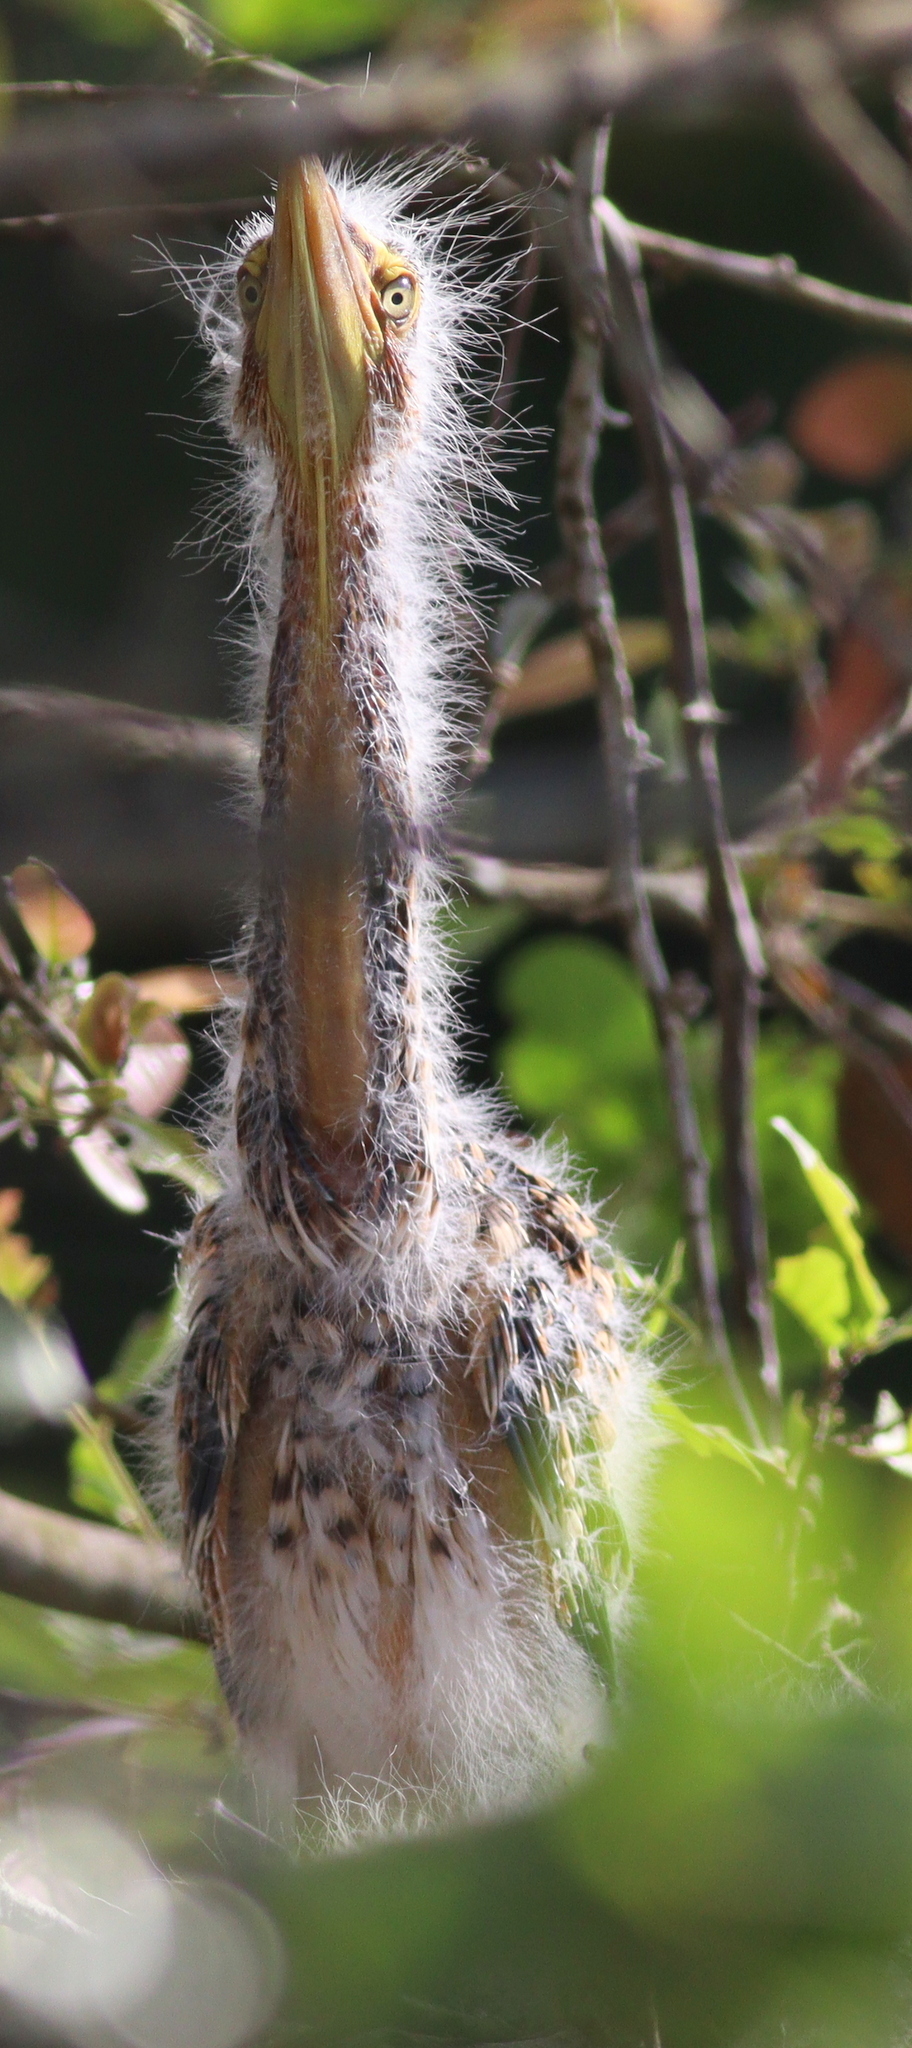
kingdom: Animalia
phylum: Chordata
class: Aves
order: Pelecaniformes
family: Ardeidae
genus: Tigrisoma
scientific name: Tigrisoma lineatum
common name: Rufescent tiger-heron
